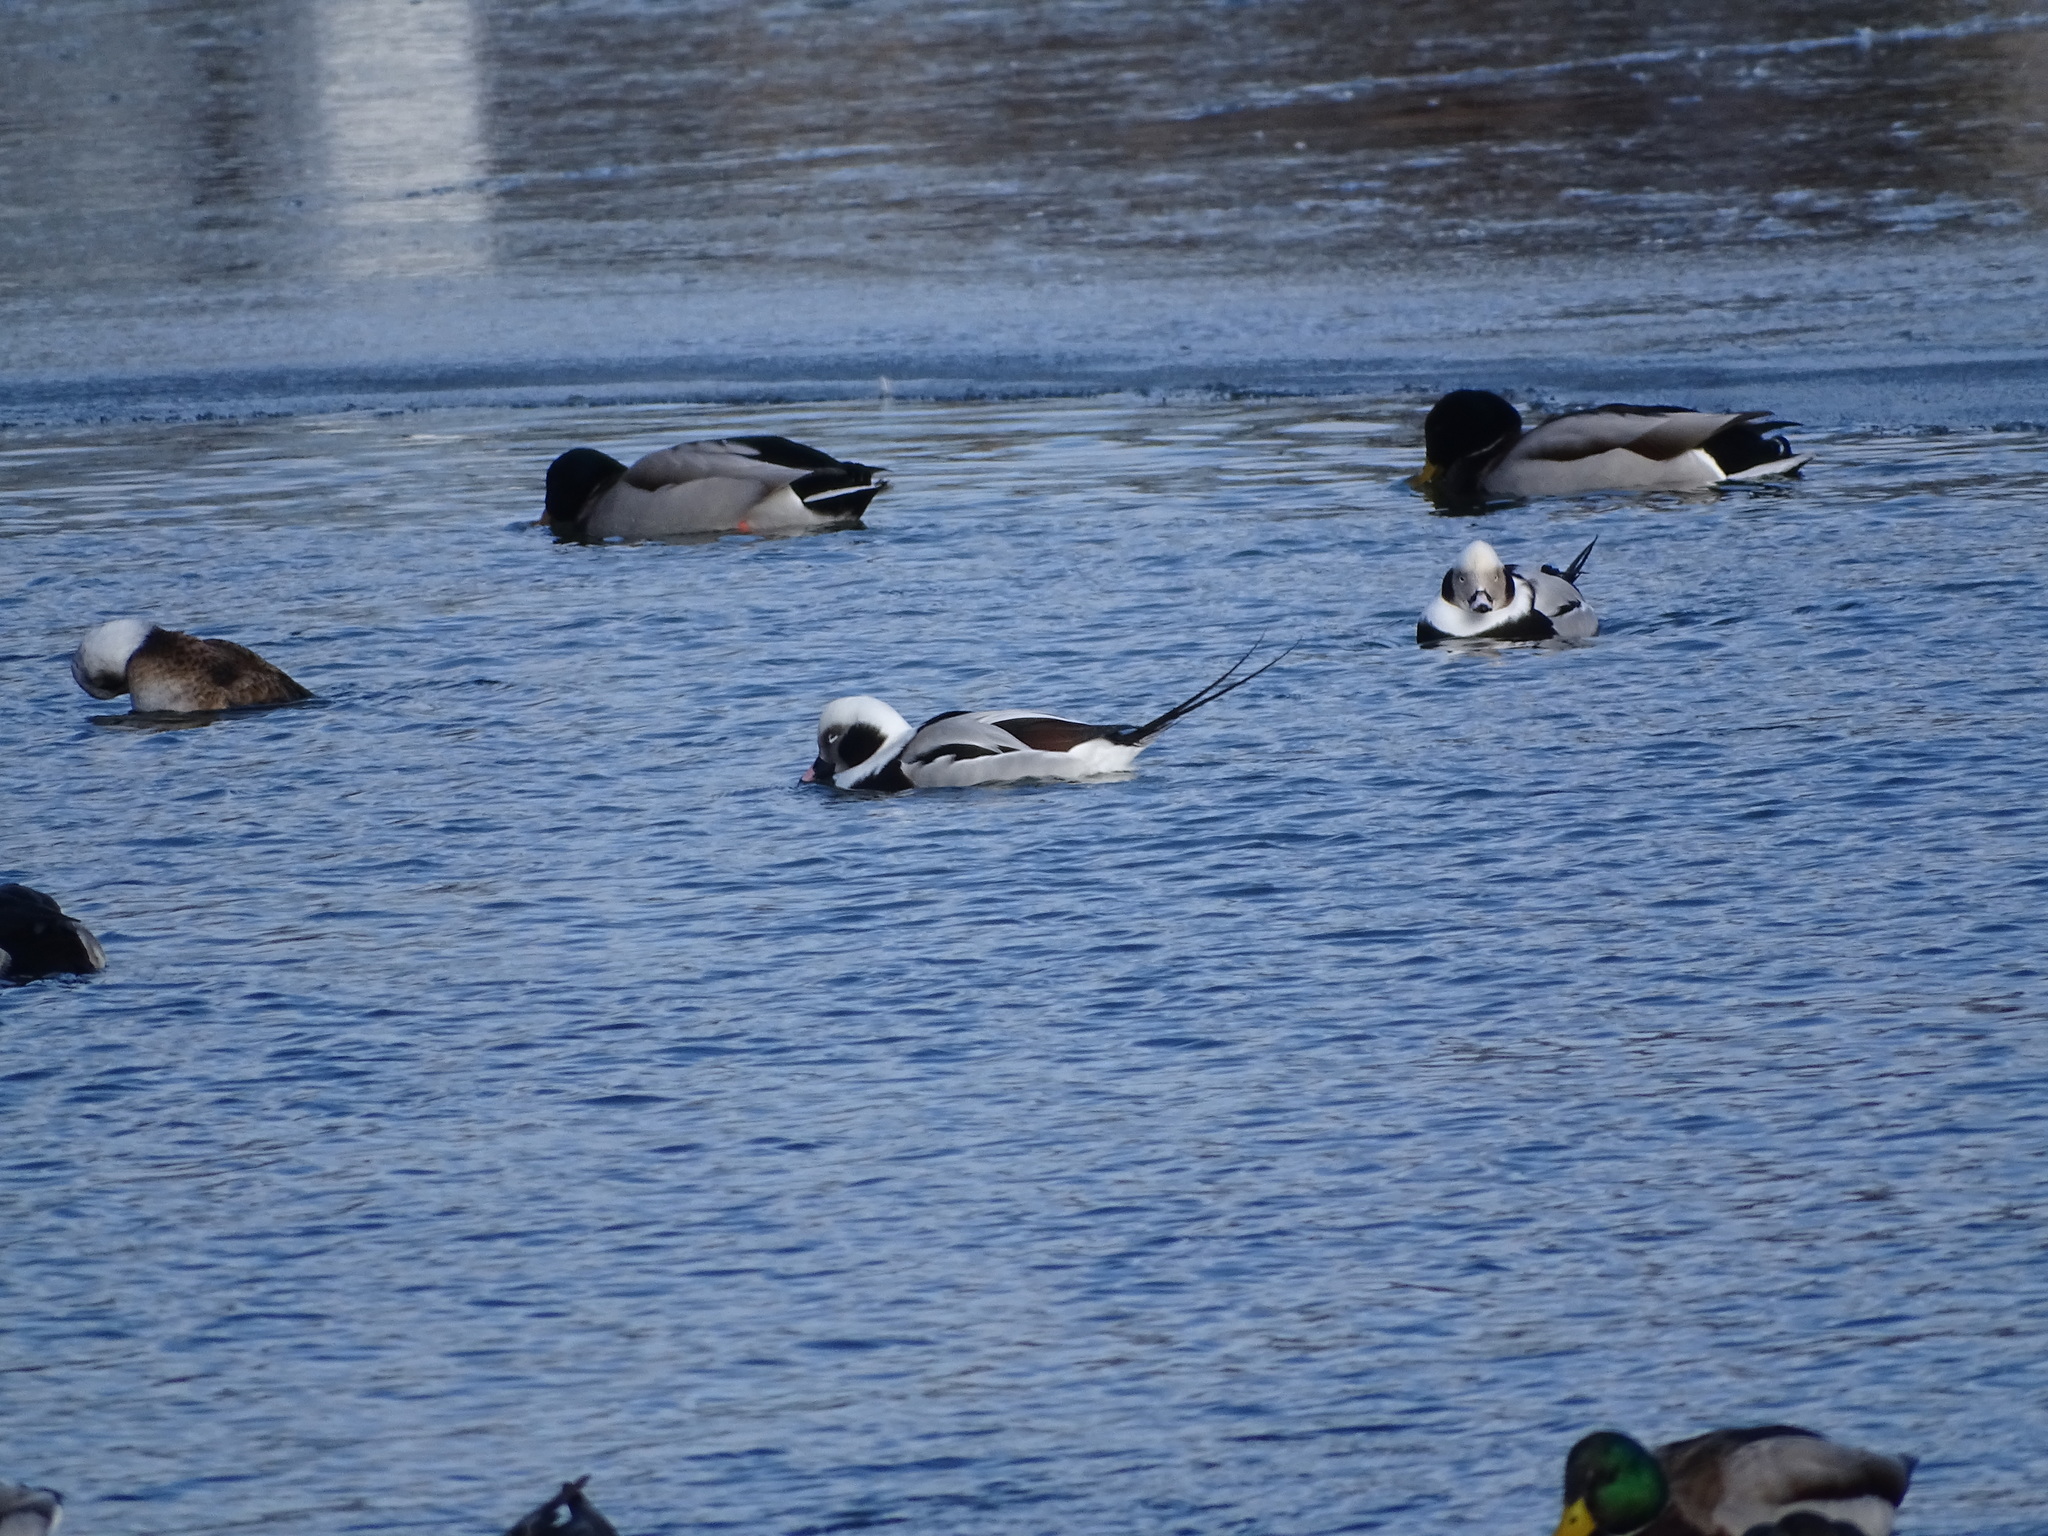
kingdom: Animalia
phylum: Chordata
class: Aves
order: Anseriformes
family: Anatidae
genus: Clangula
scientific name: Clangula hyemalis
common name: Long-tailed duck
